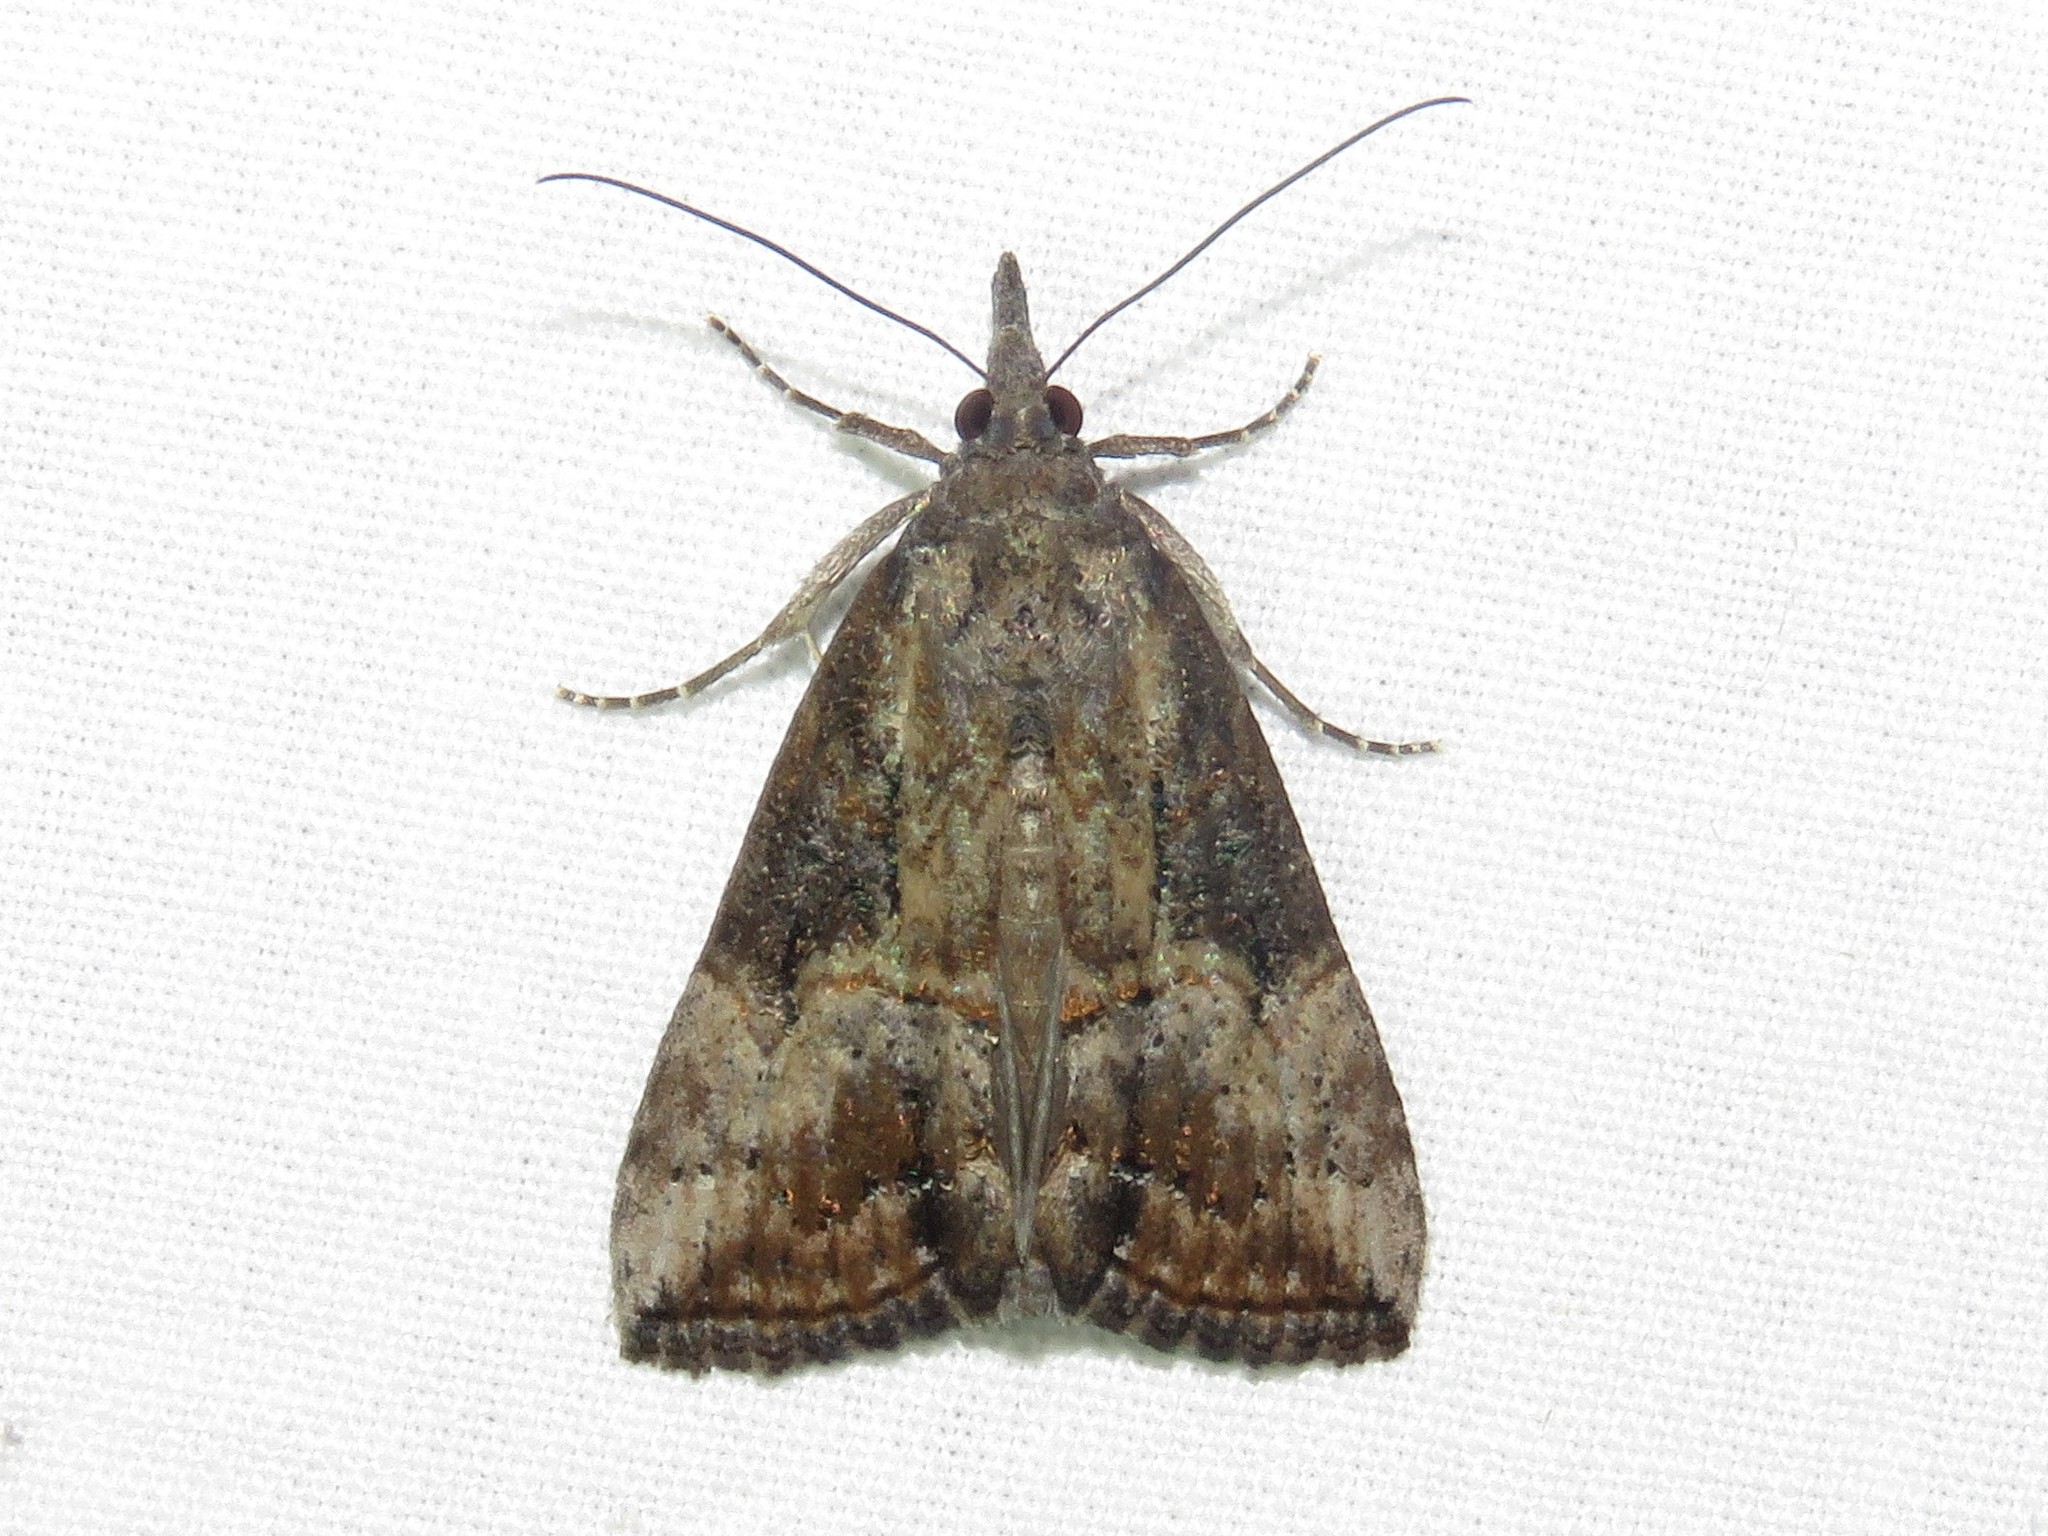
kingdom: Animalia
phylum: Arthropoda
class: Insecta
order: Lepidoptera
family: Erebidae
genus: Hypena
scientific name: Hypena scabra
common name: Green cloverworm
